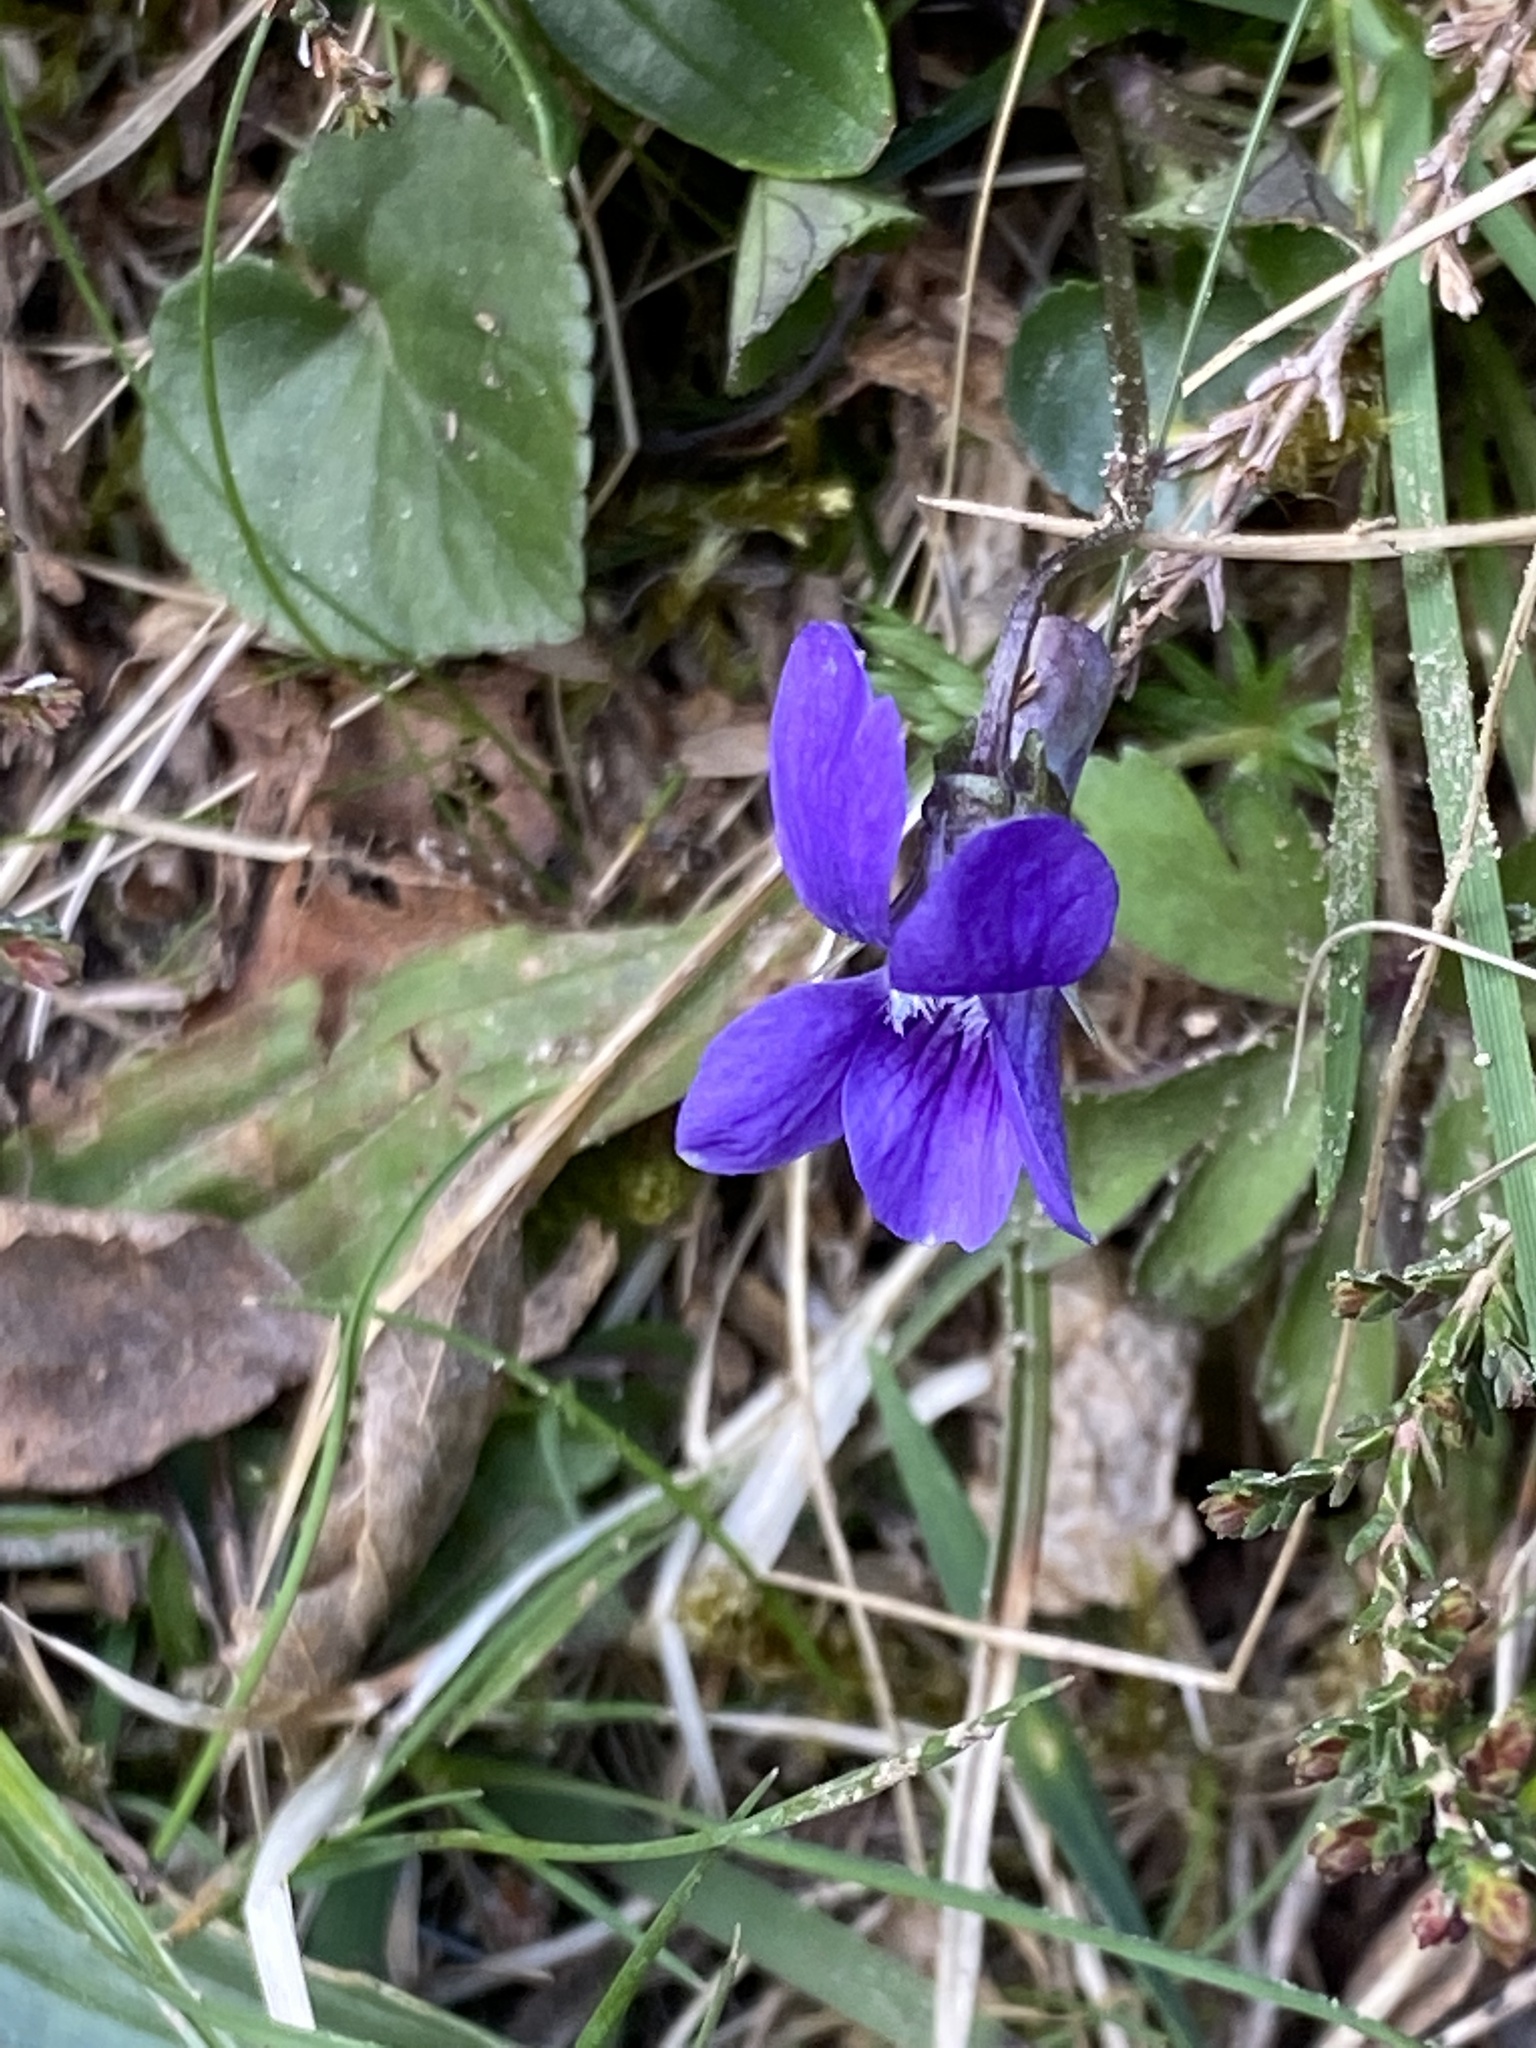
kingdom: Plantae
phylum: Tracheophyta
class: Magnoliopsida
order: Malpighiales
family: Violaceae
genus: Viola
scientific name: Viola reichenbachiana
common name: Early dog-violet
